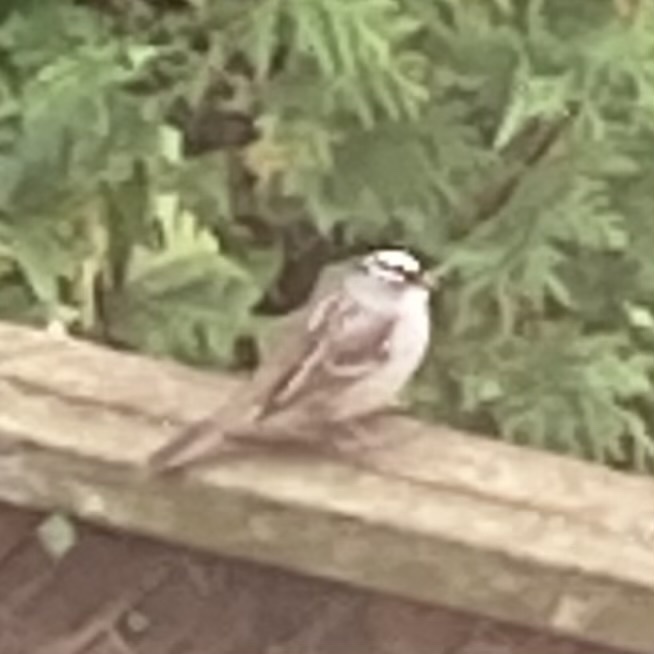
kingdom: Animalia
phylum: Chordata
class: Aves
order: Passeriformes
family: Passerellidae
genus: Zonotrichia
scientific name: Zonotrichia leucophrys
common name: White-crowned sparrow
